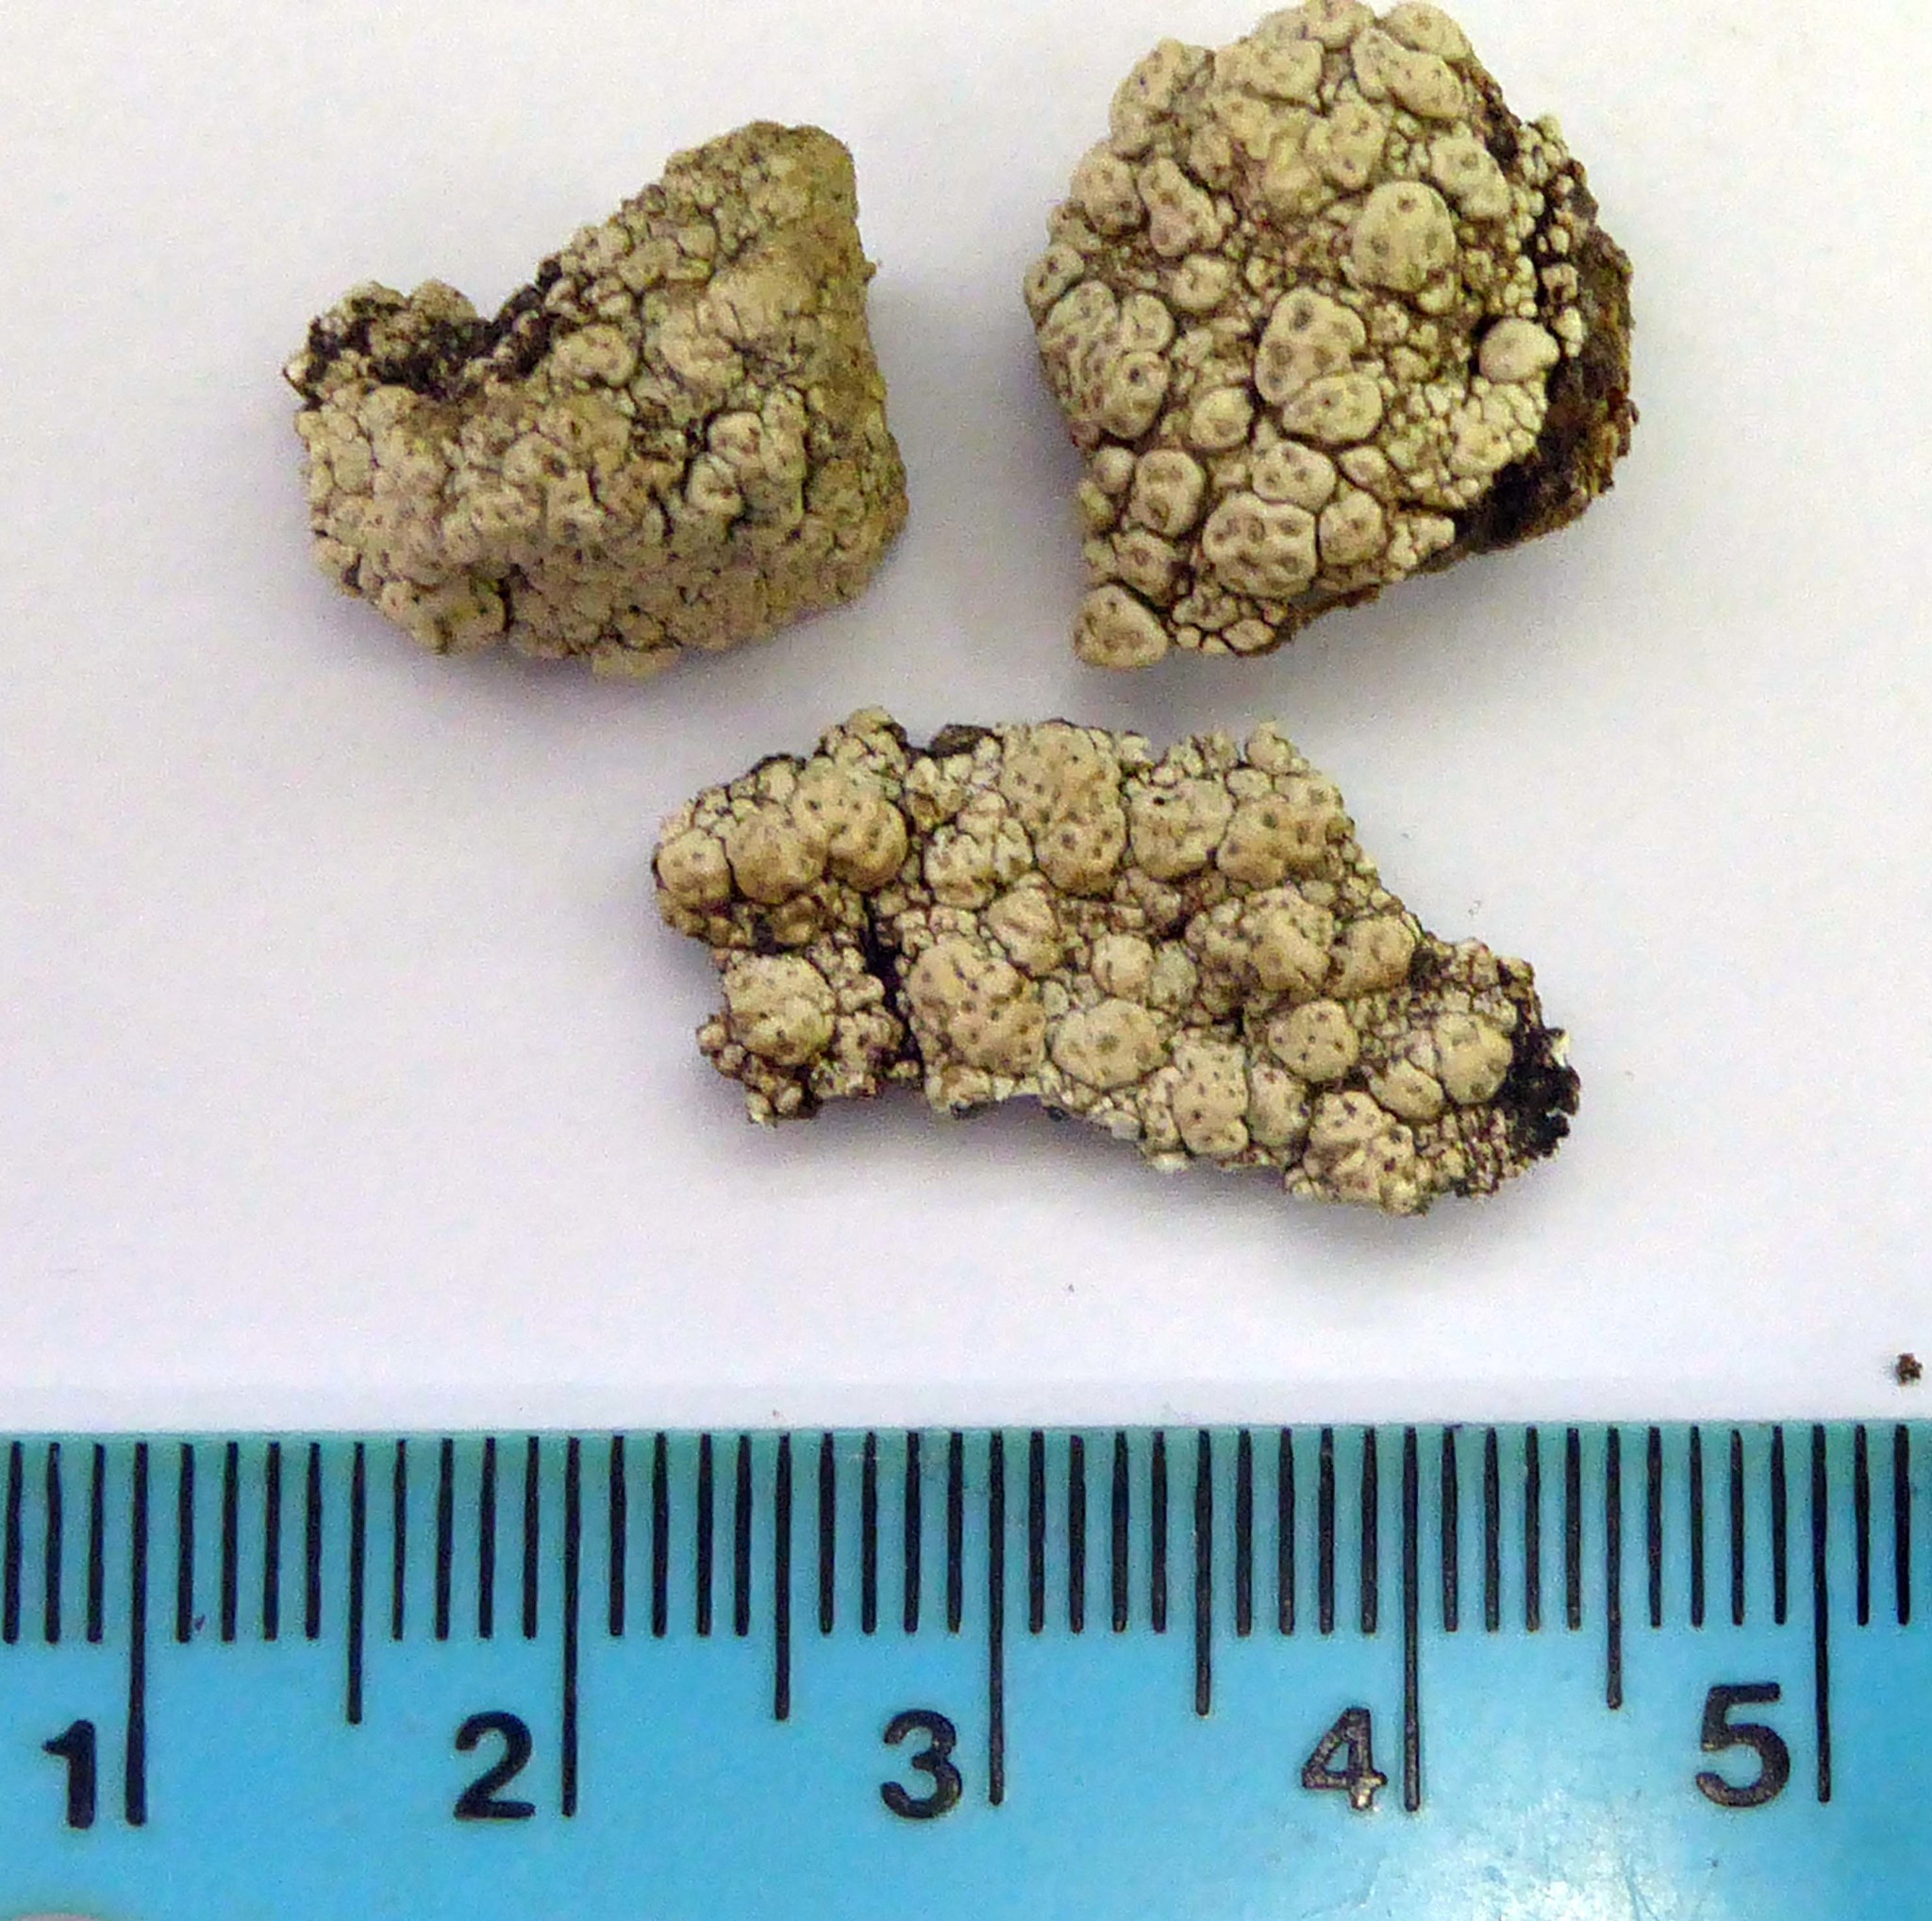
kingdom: Fungi
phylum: Ascomycota
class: Lecanoromycetes
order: Pertusariales
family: Pertusariaceae
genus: Pertusaria
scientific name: Pertusaria
